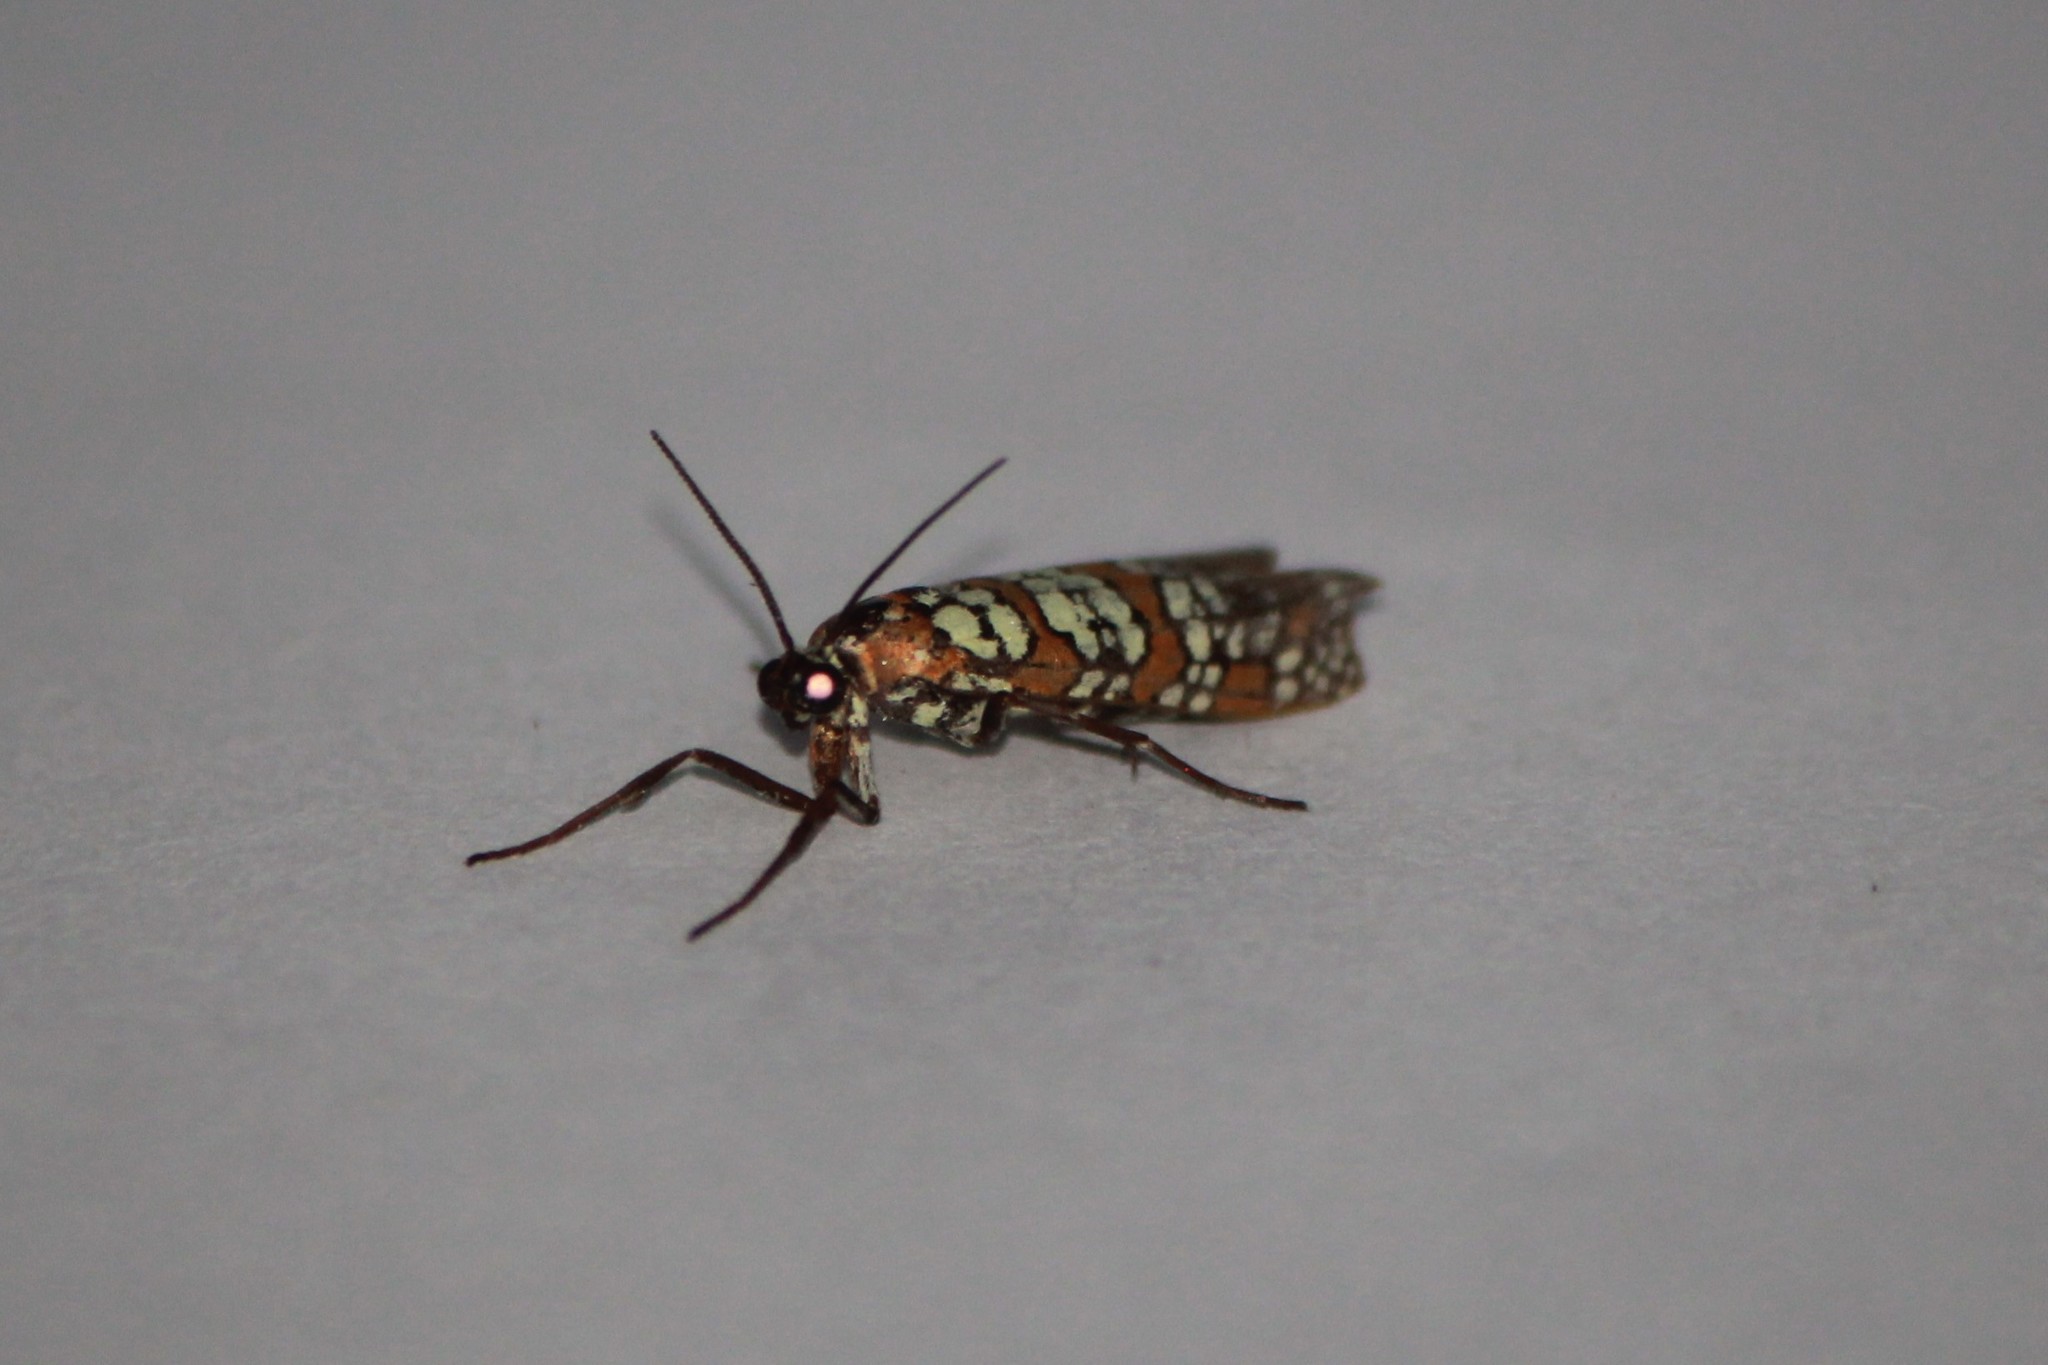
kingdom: Animalia
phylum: Arthropoda
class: Insecta
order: Lepidoptera
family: Attevidae
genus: Atteva
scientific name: Atteva punctella
